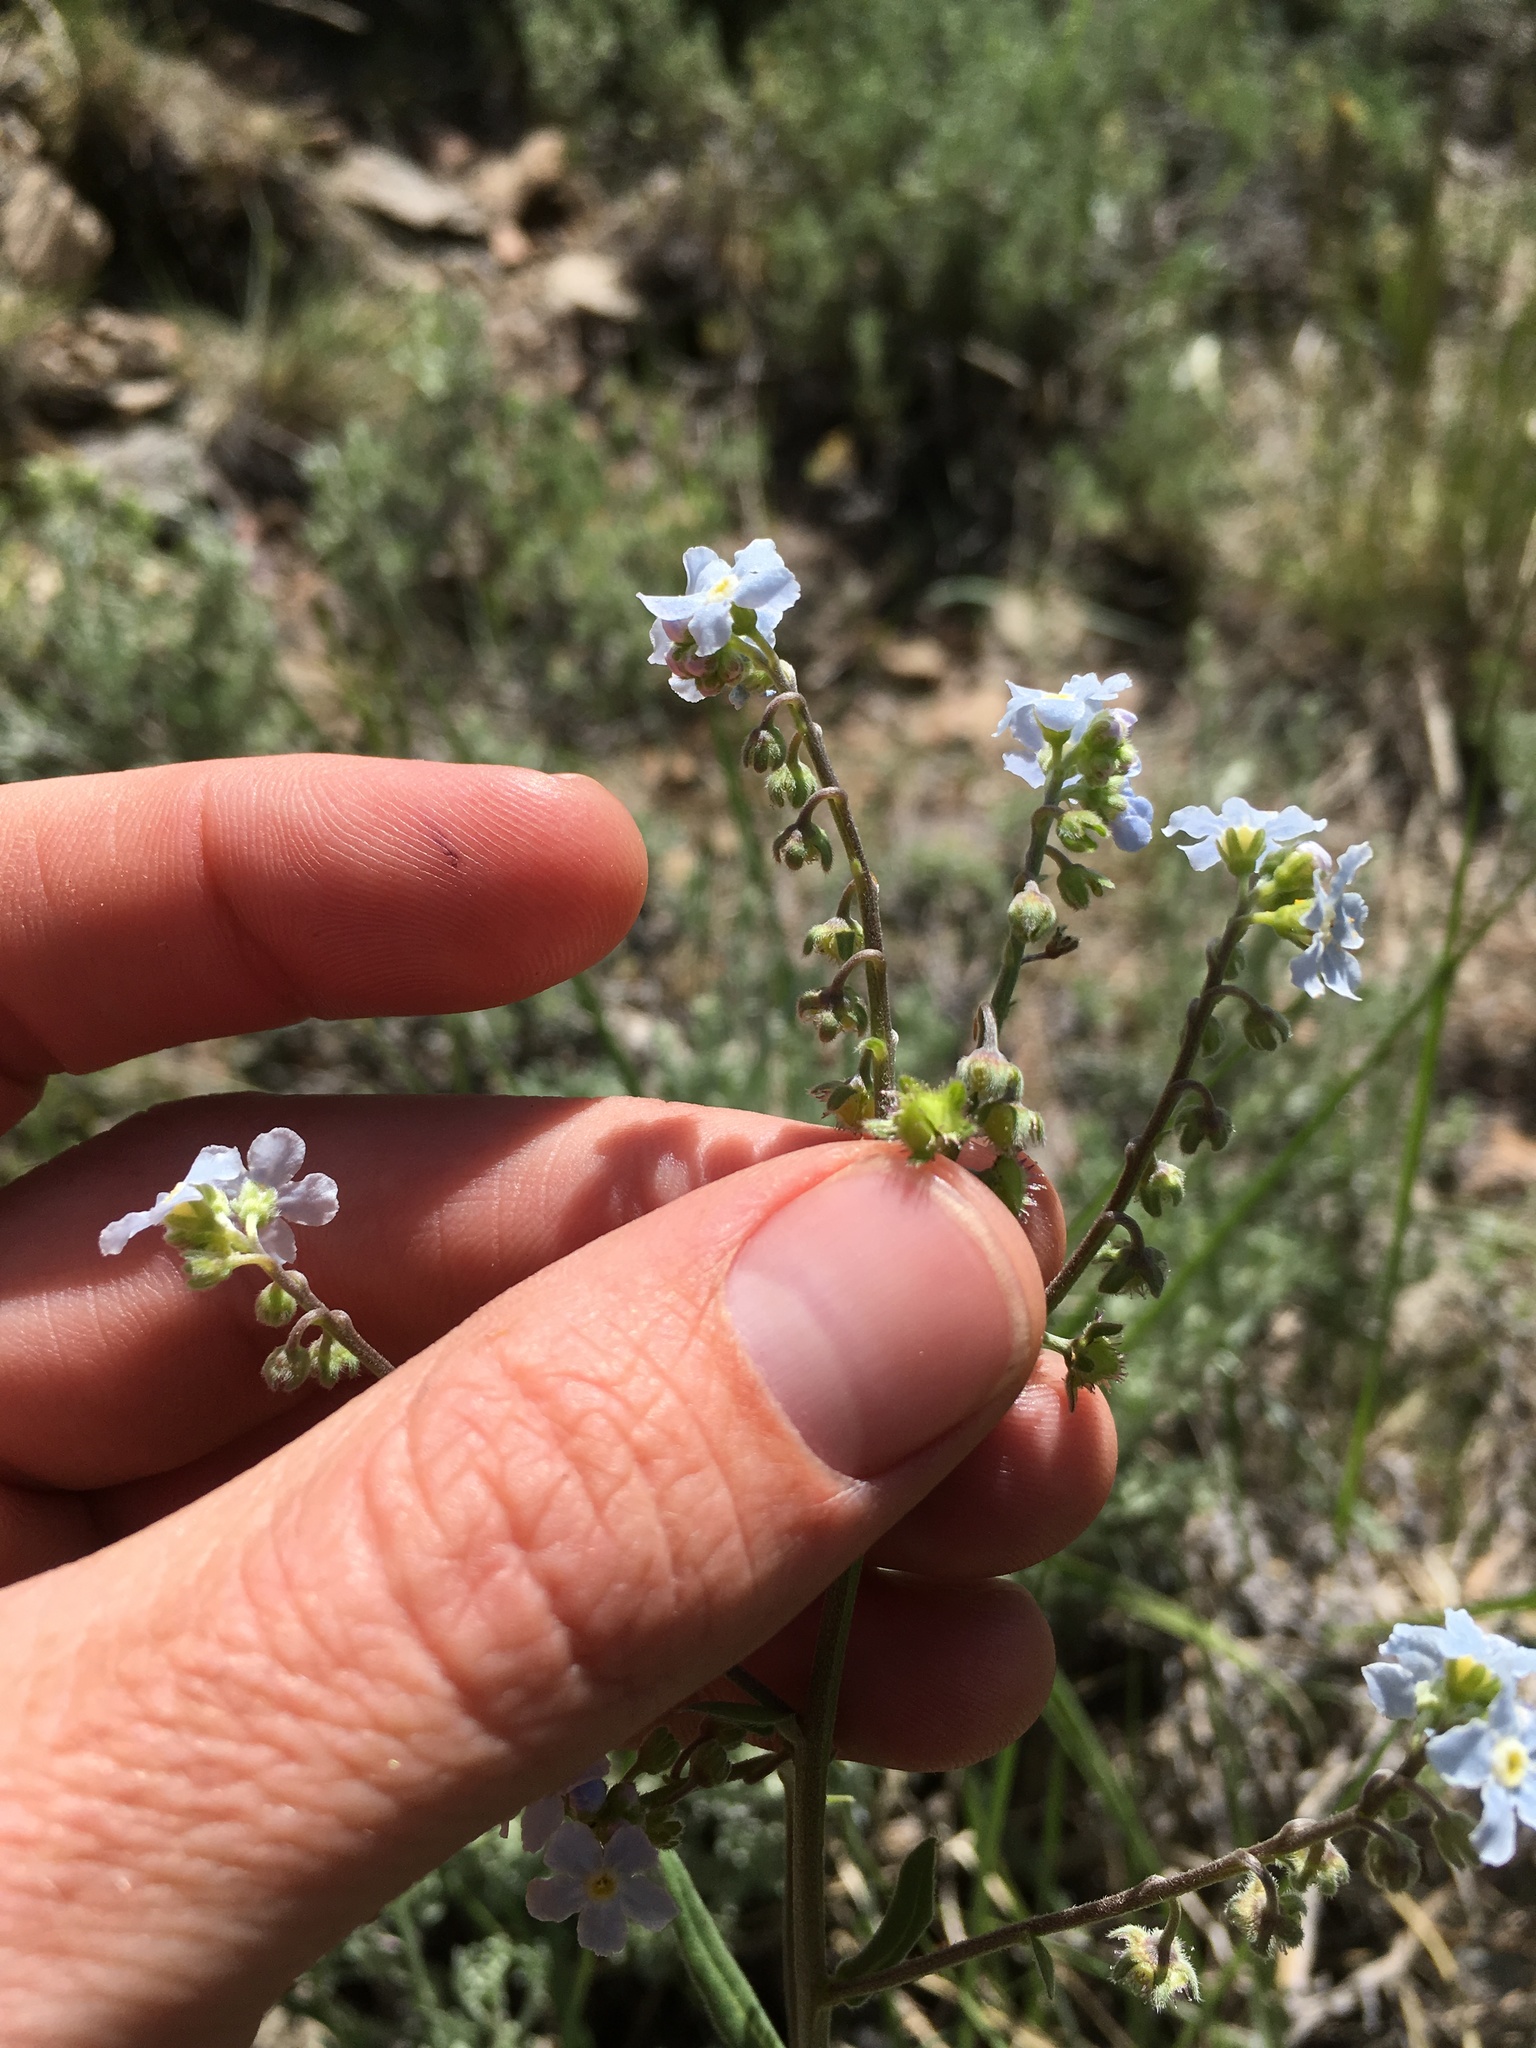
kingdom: Plantae
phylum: Tracheophyta
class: Magnoliopsida
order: Boraginales
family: Boraginaceae
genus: Hackelia
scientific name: Hackelia brevicula
